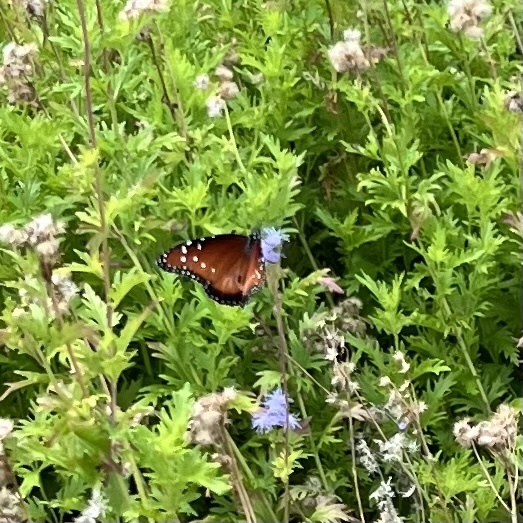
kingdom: Animalia
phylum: Arthropoda
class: Insecta
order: Lepidoptera
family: Nymphalidae
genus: Danaus
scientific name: Danaus gilippus
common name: Queen
